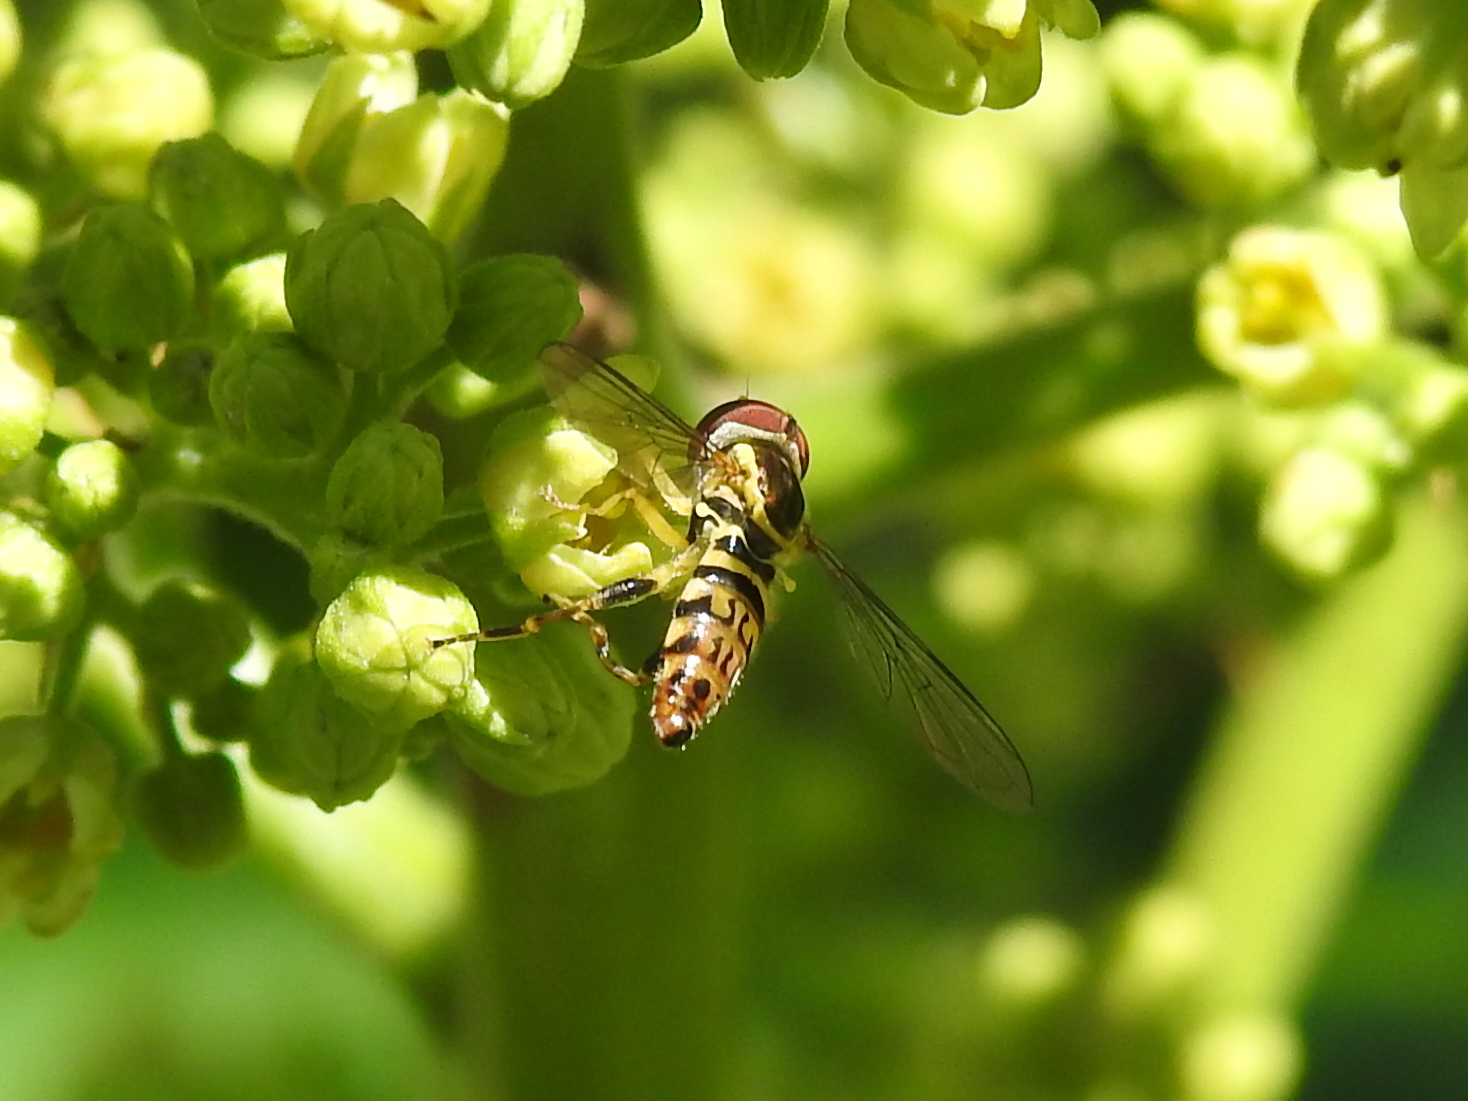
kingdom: Animalia
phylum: Arthropoda
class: Insecta
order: Diptera
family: Syrphidae
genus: Toxomerus
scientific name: Toxomerus geminatus
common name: Eastern calligrapher
